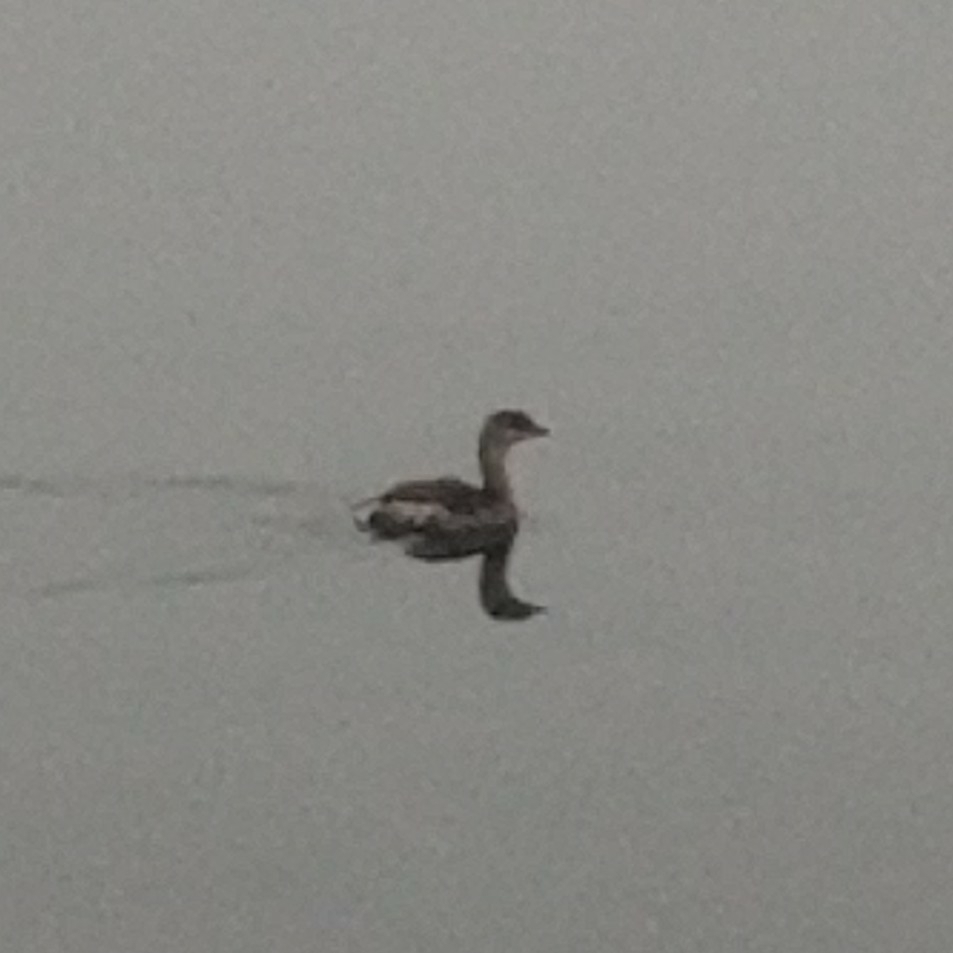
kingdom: Animalia
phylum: Chordata
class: Aves
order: Podicipediformes
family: Podicipedidae
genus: Podilymbus
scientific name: Podilymbus podiceps
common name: Pied-billed grebe
